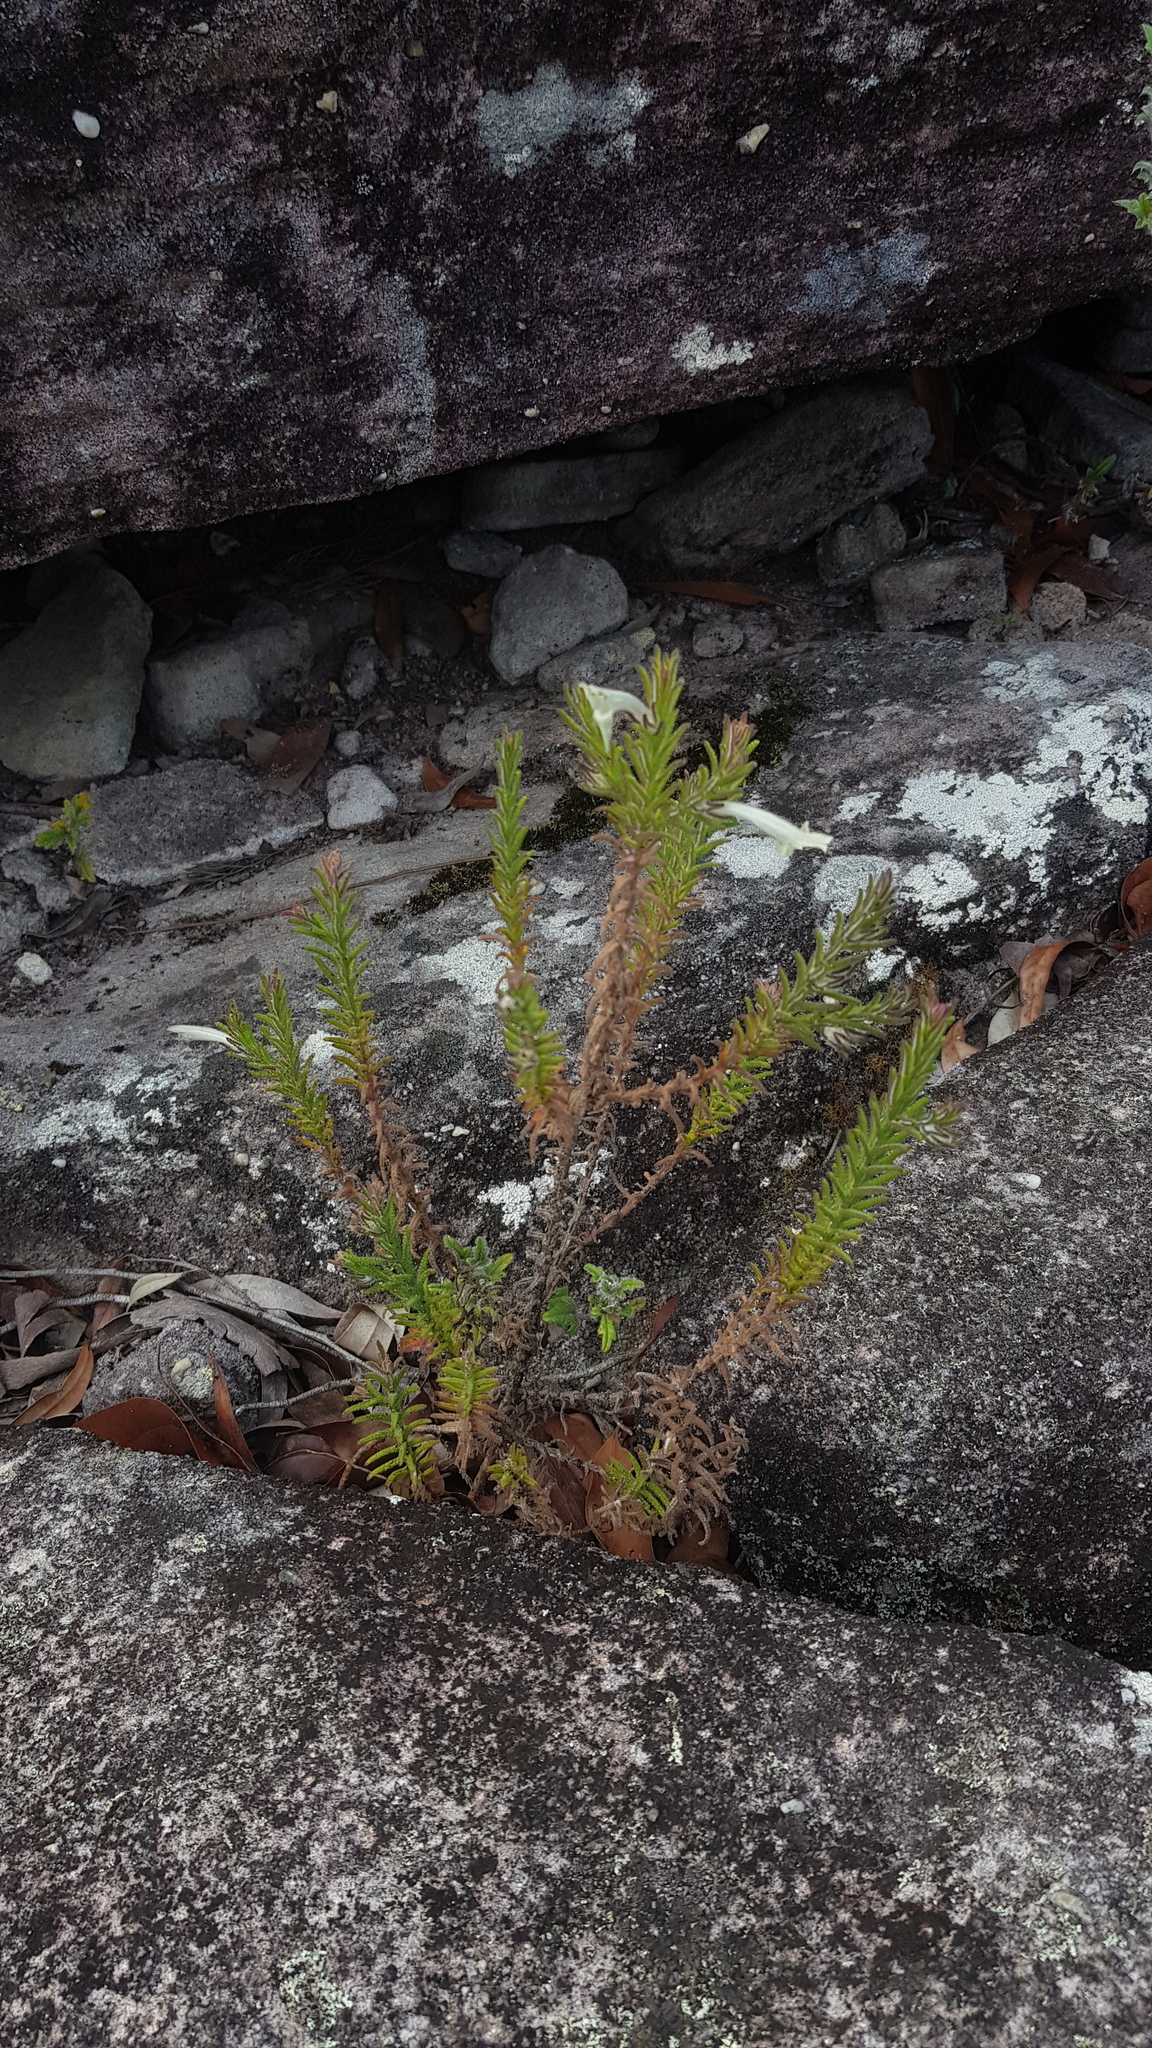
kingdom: Plantae
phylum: Tracheophyta
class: Magnoliopsida
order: Lamiales
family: Lamiaceae
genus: Chloanthes
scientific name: Chloanthes stoechadis
